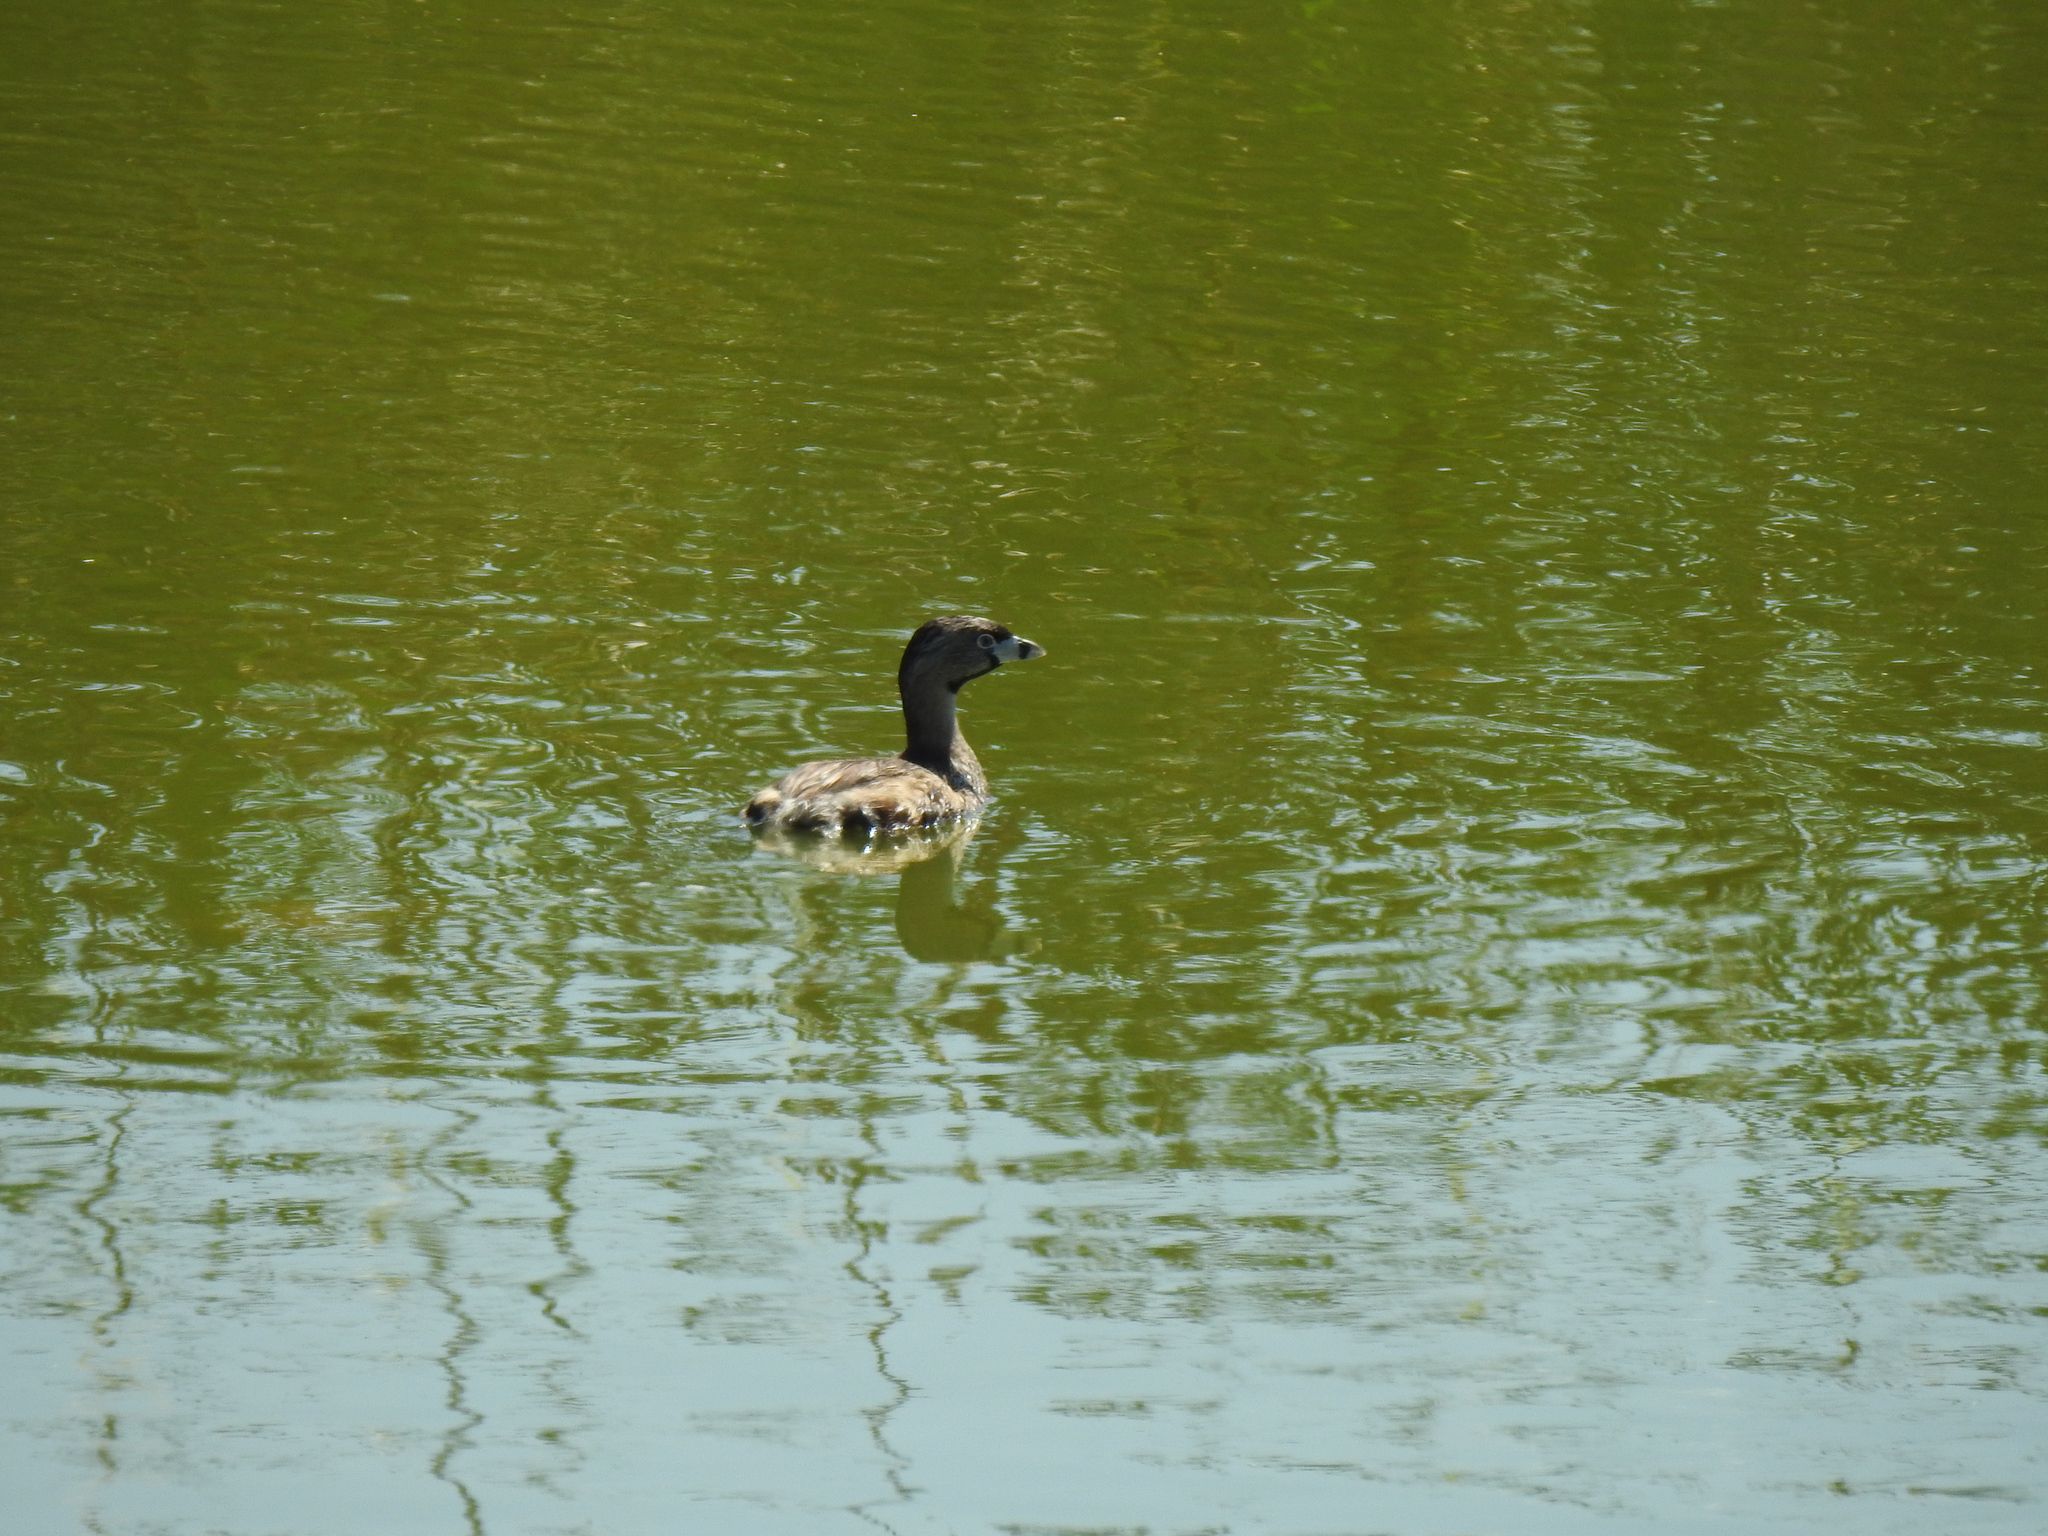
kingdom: Animalia
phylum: Chordata
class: Aves
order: Podicipediformes
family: Podicipedidae
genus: Podilymbus
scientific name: Podilymbus podiceps
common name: Pied-billed grebe
